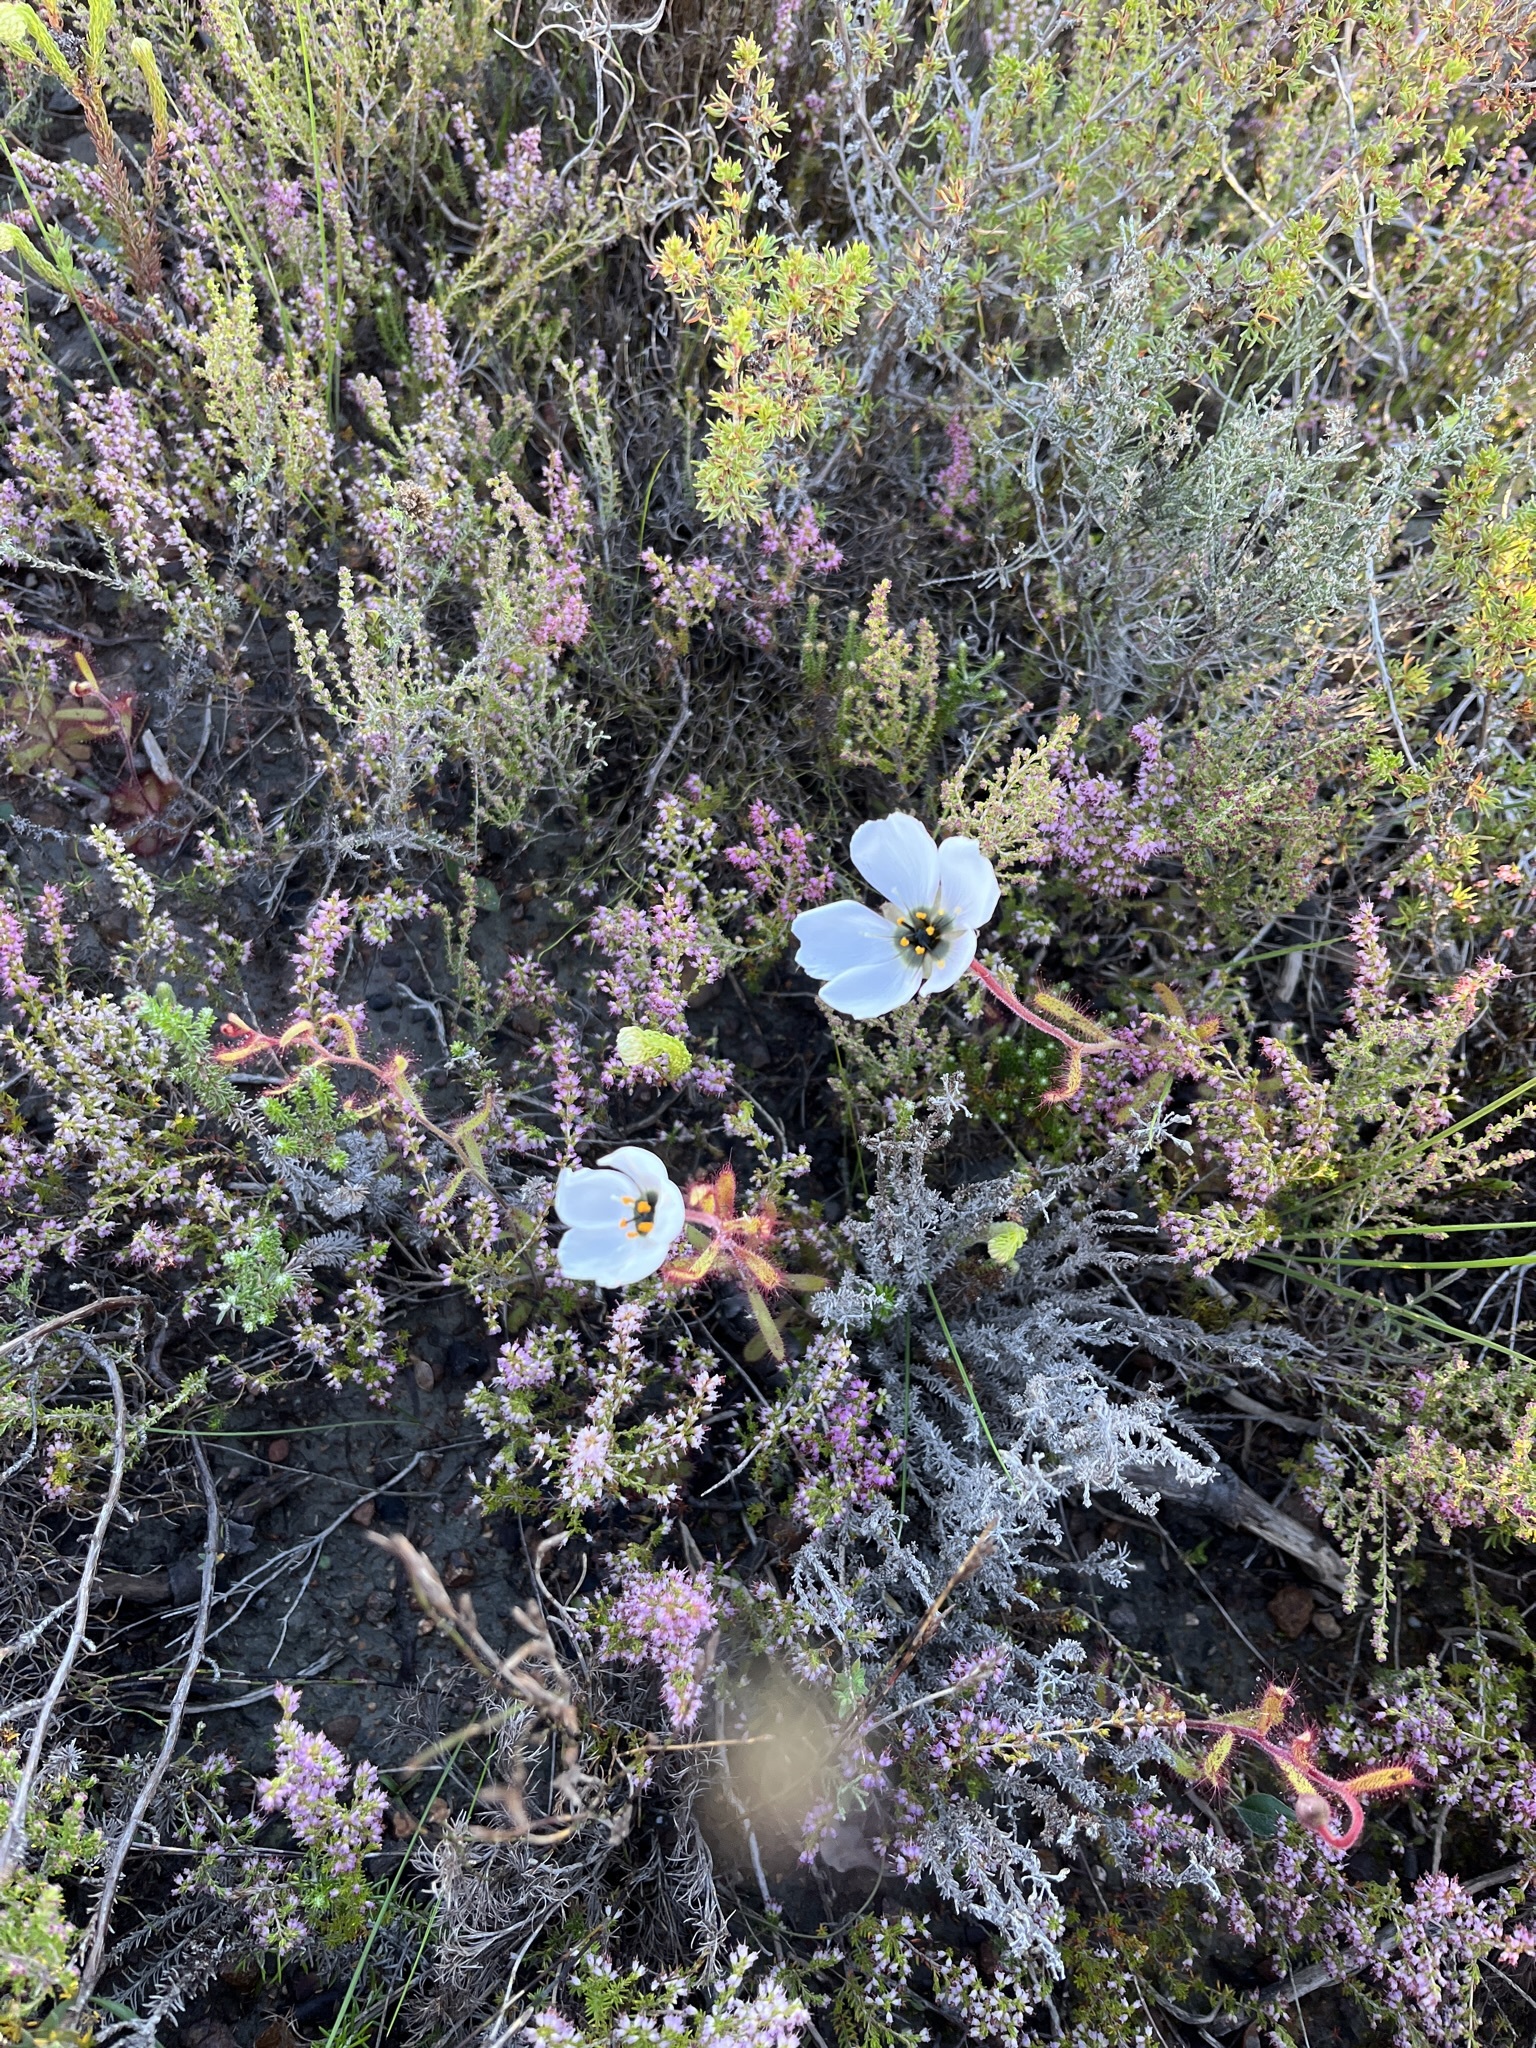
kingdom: Plantae
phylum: Tracheophyta
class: Magnoliopsida
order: Caryophyllales
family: Droseraceae
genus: Drosera
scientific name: Drosera cistiflora
